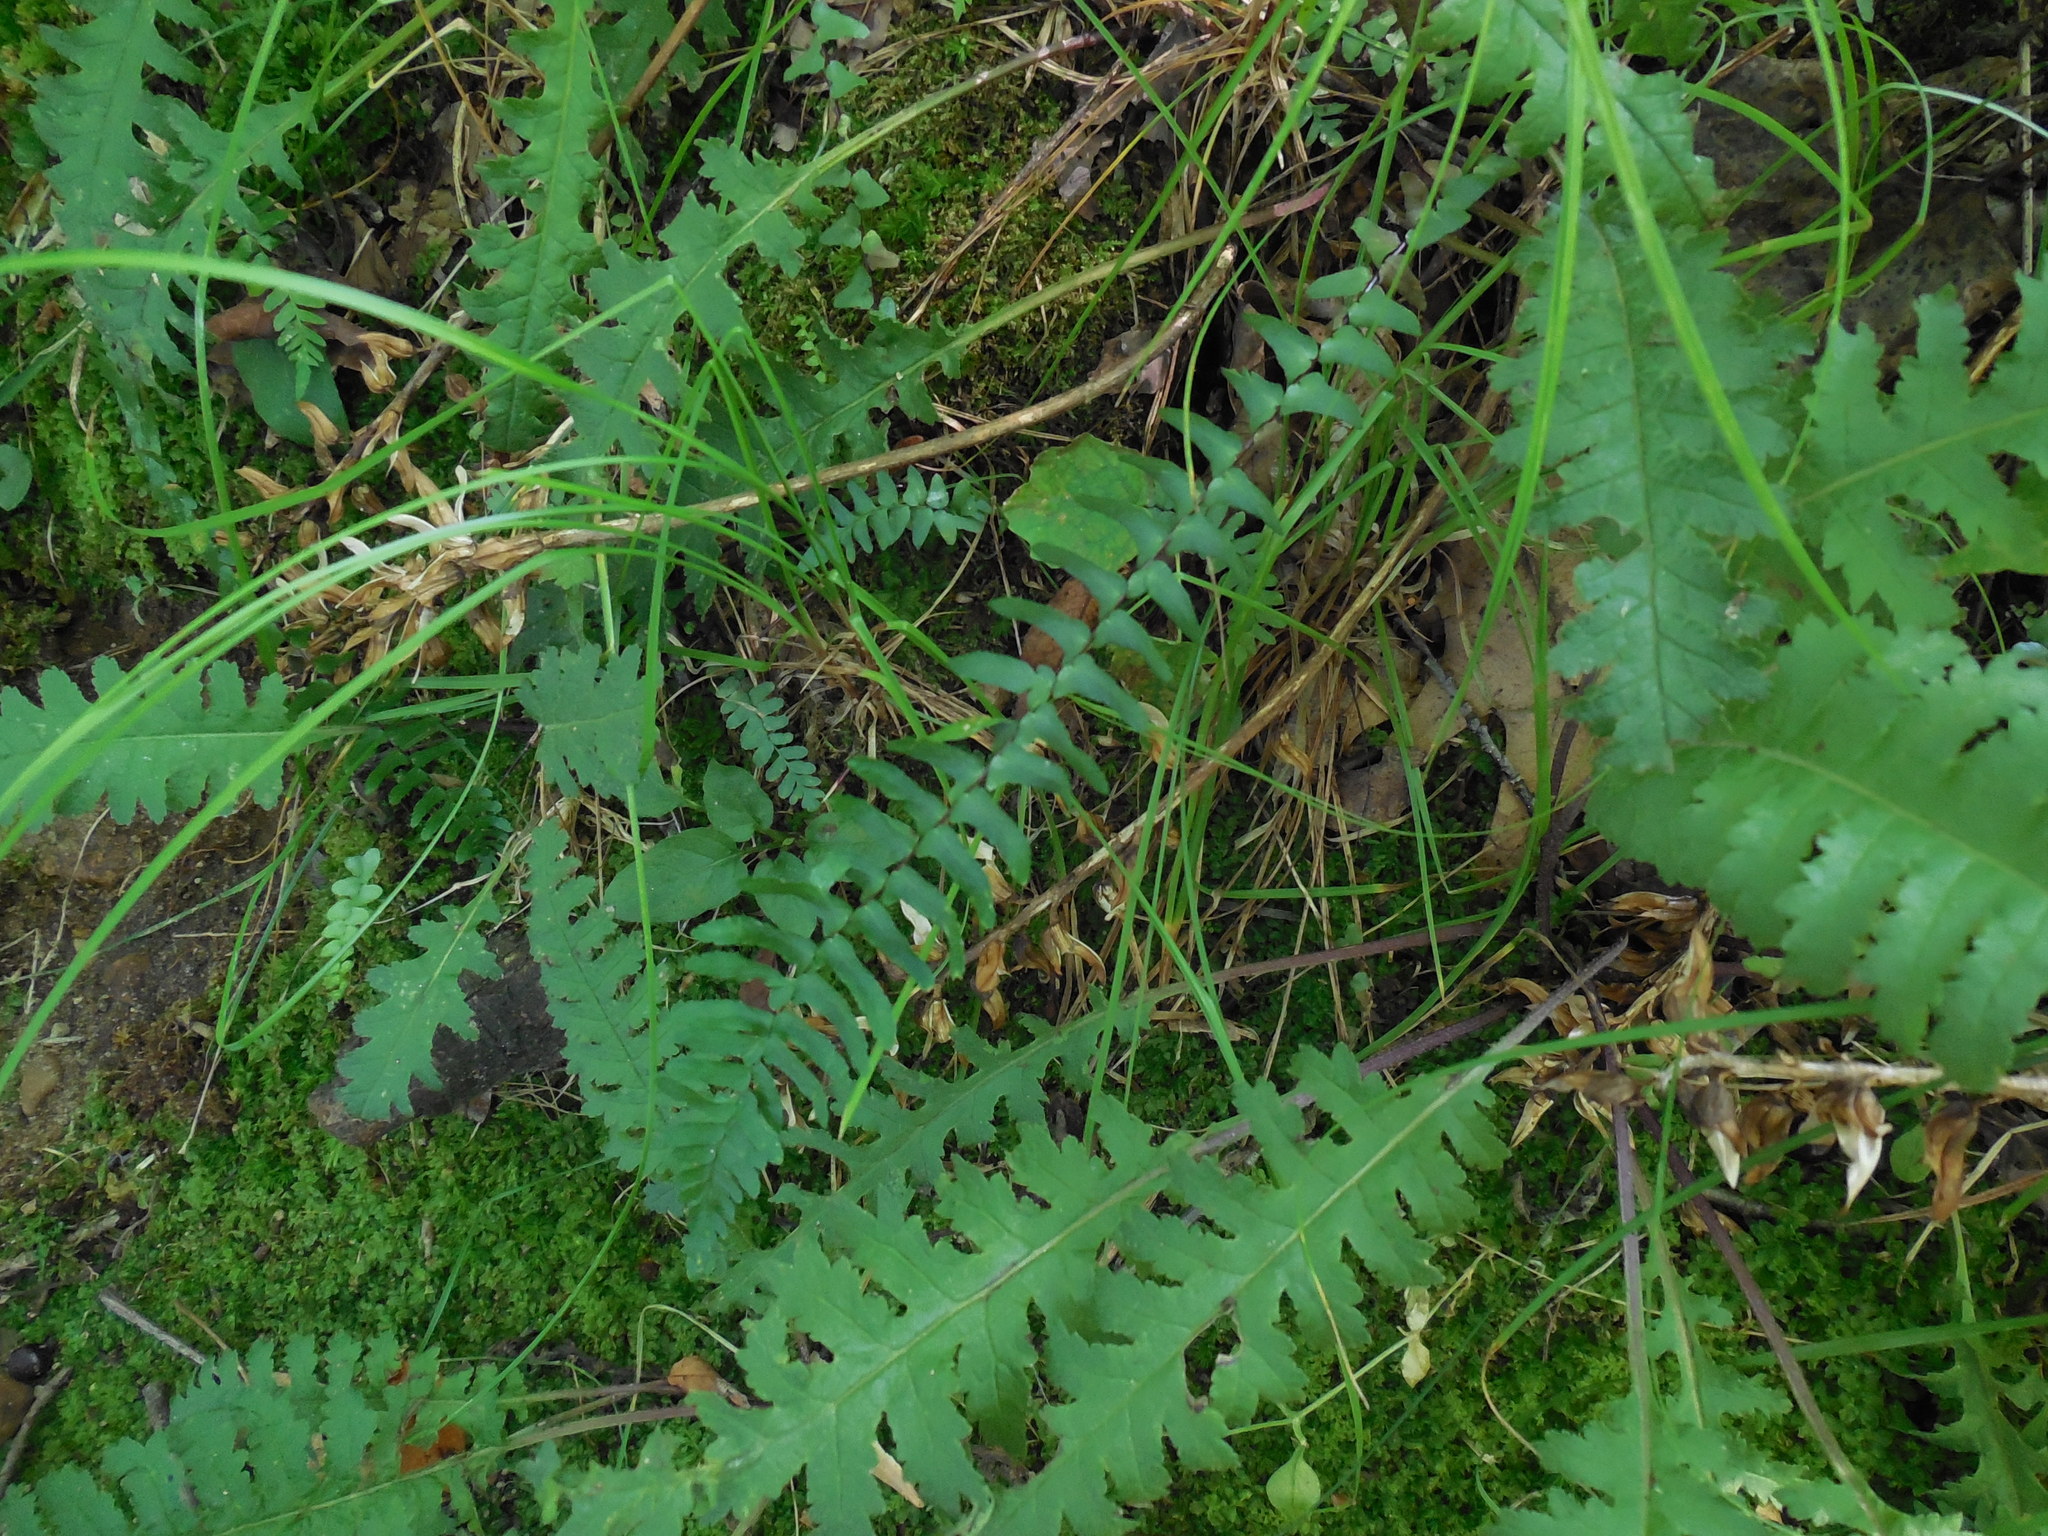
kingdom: Plantae
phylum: Tracheophyta
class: Polypodiopsida
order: Polypodiales
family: Aspleniaceae
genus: Asplenium
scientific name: Asplenium platyneuron
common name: Ebony spleenwort
